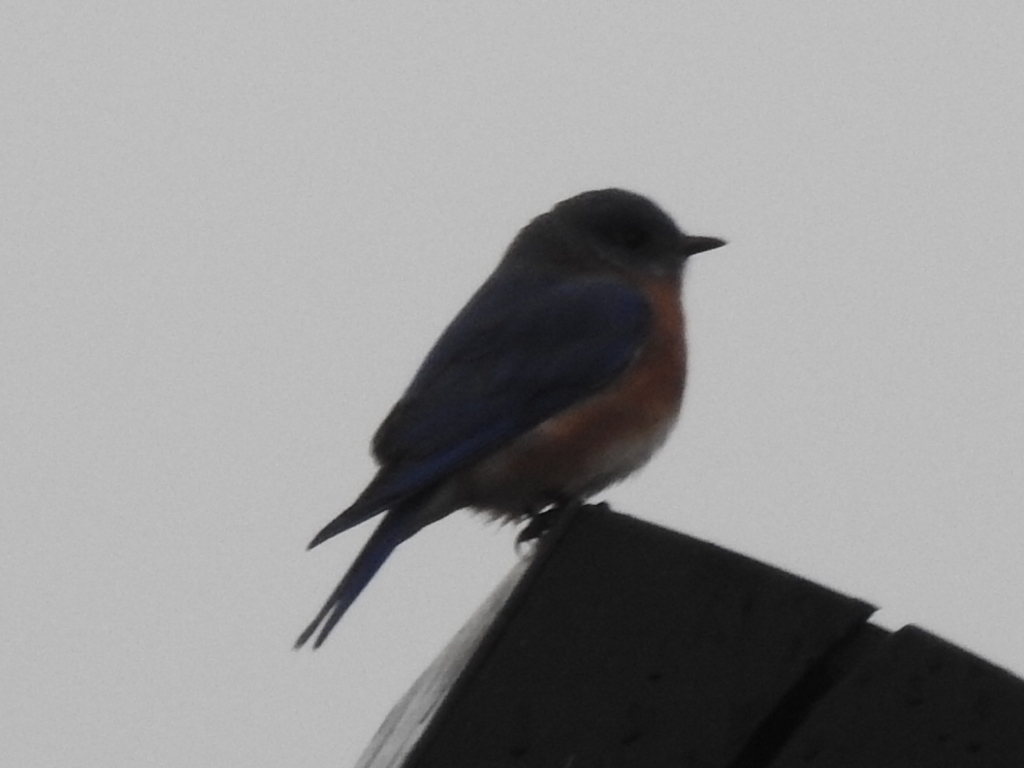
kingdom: Animalia
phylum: Chordata
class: Aves
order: Passeriformes
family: Turdidae
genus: Sialia
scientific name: Sialia sialis
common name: Eastern bluebird
